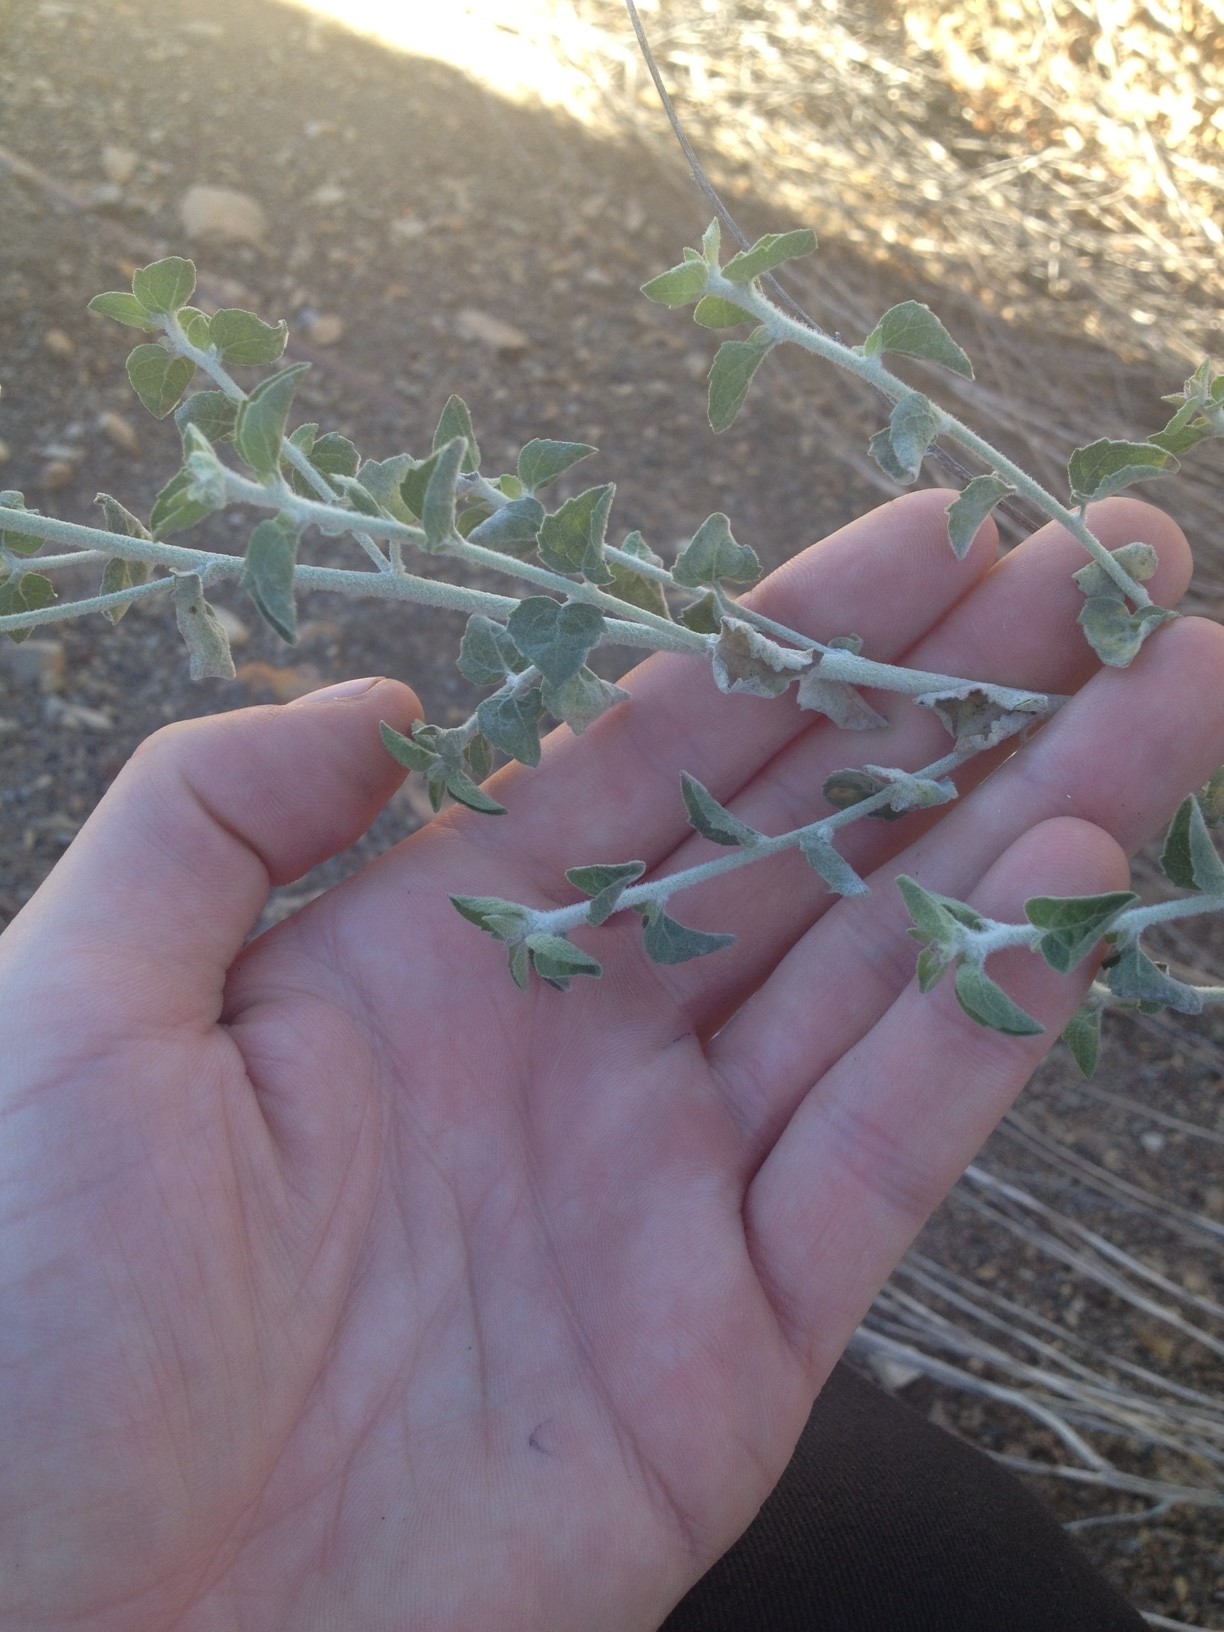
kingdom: Plantae
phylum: Tracheophyta
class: Magnoliopsida
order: Asterales
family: Asteraceae
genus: Brickellia
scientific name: Brickellia nevinii
